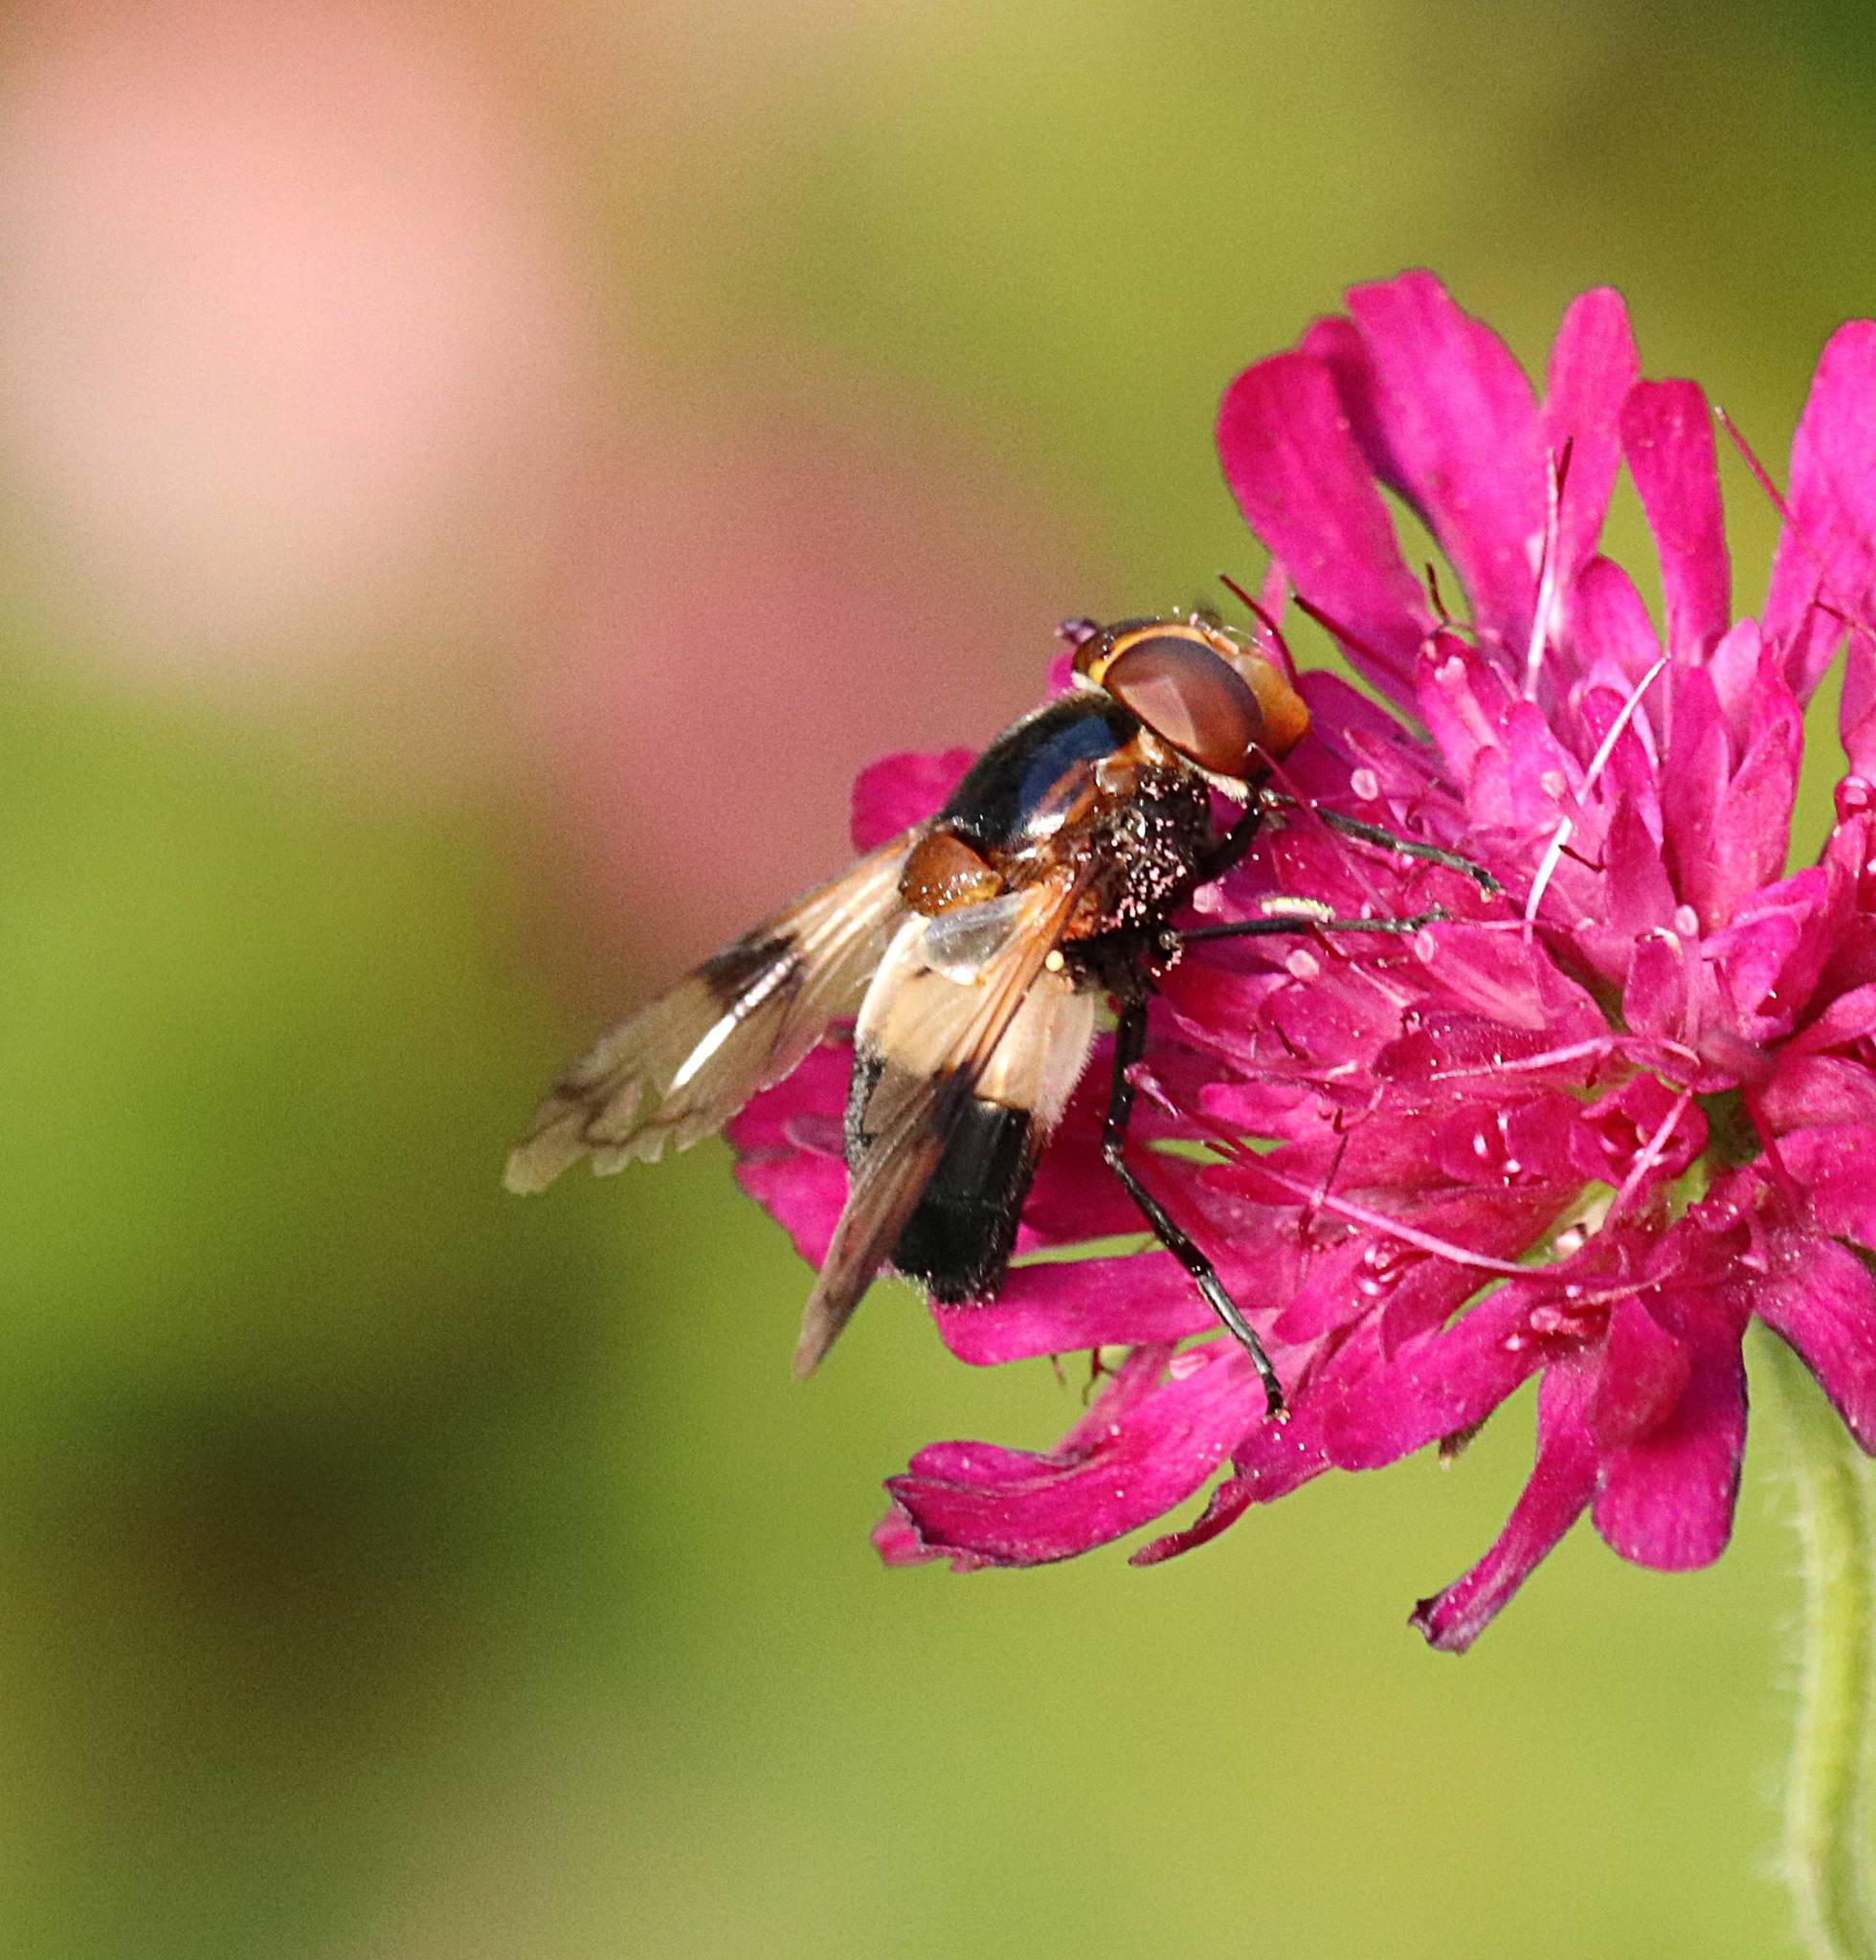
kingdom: Animalia
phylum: Arthropoda
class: Insecta
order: Diptera
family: Syrphidae
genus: Volucella
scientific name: Volucella pellucens
